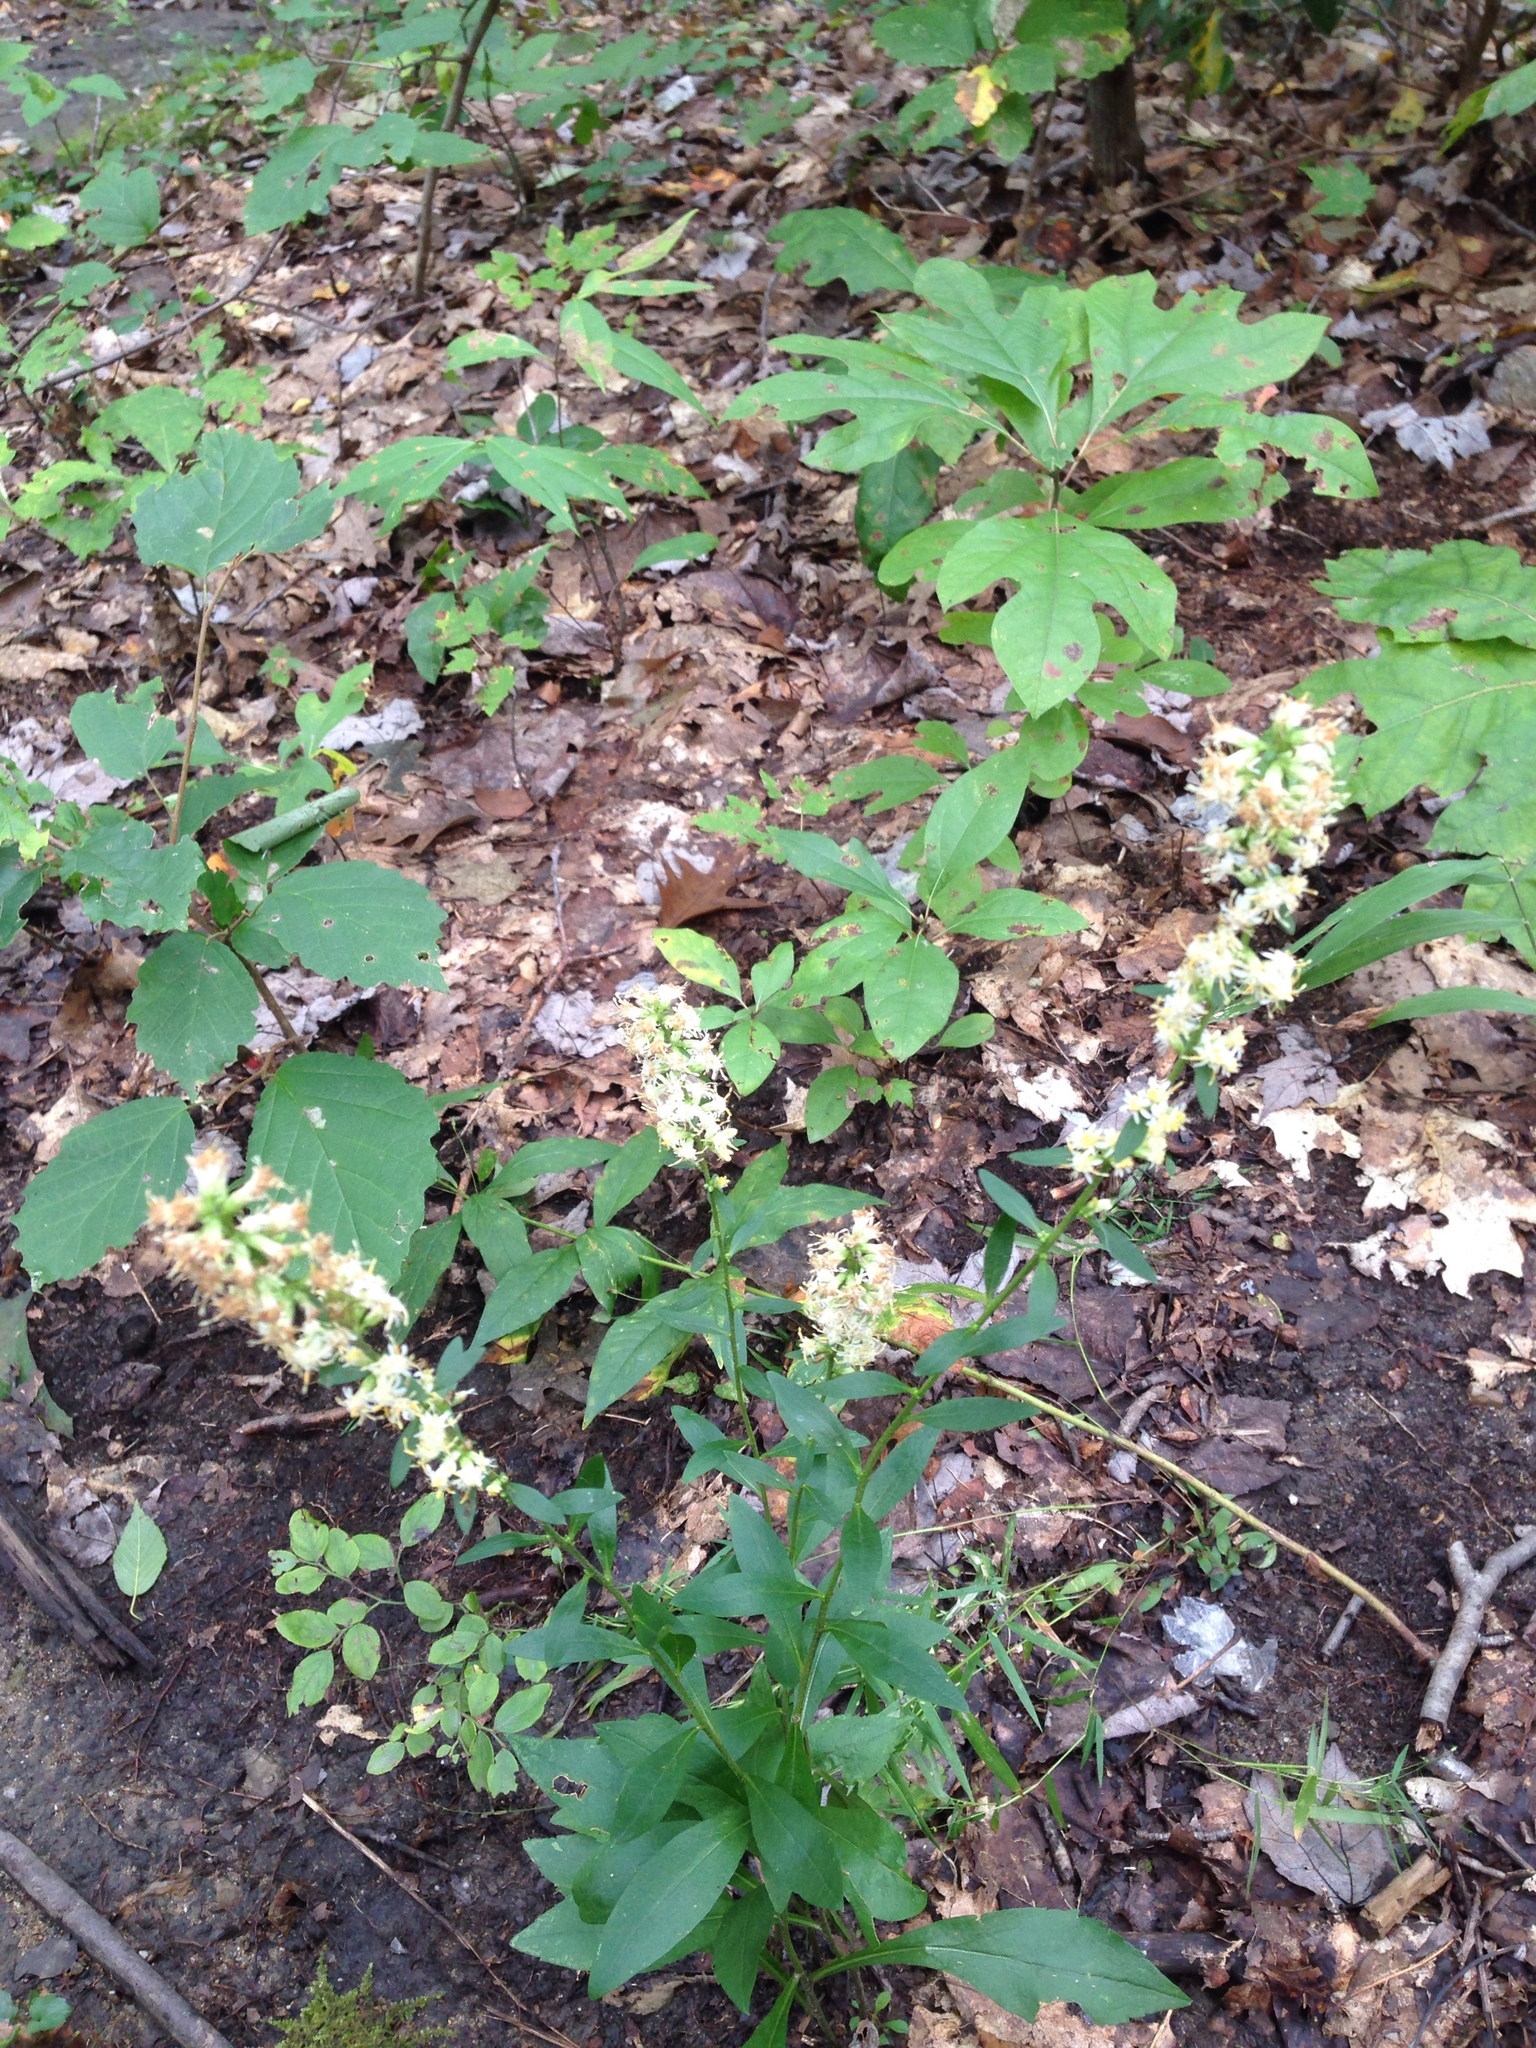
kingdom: Plantae
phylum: Tracheophyta
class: Magnoliopsida
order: Asterales
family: Asteraceae
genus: Solidago
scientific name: Solidago bicolor
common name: Silverrod
